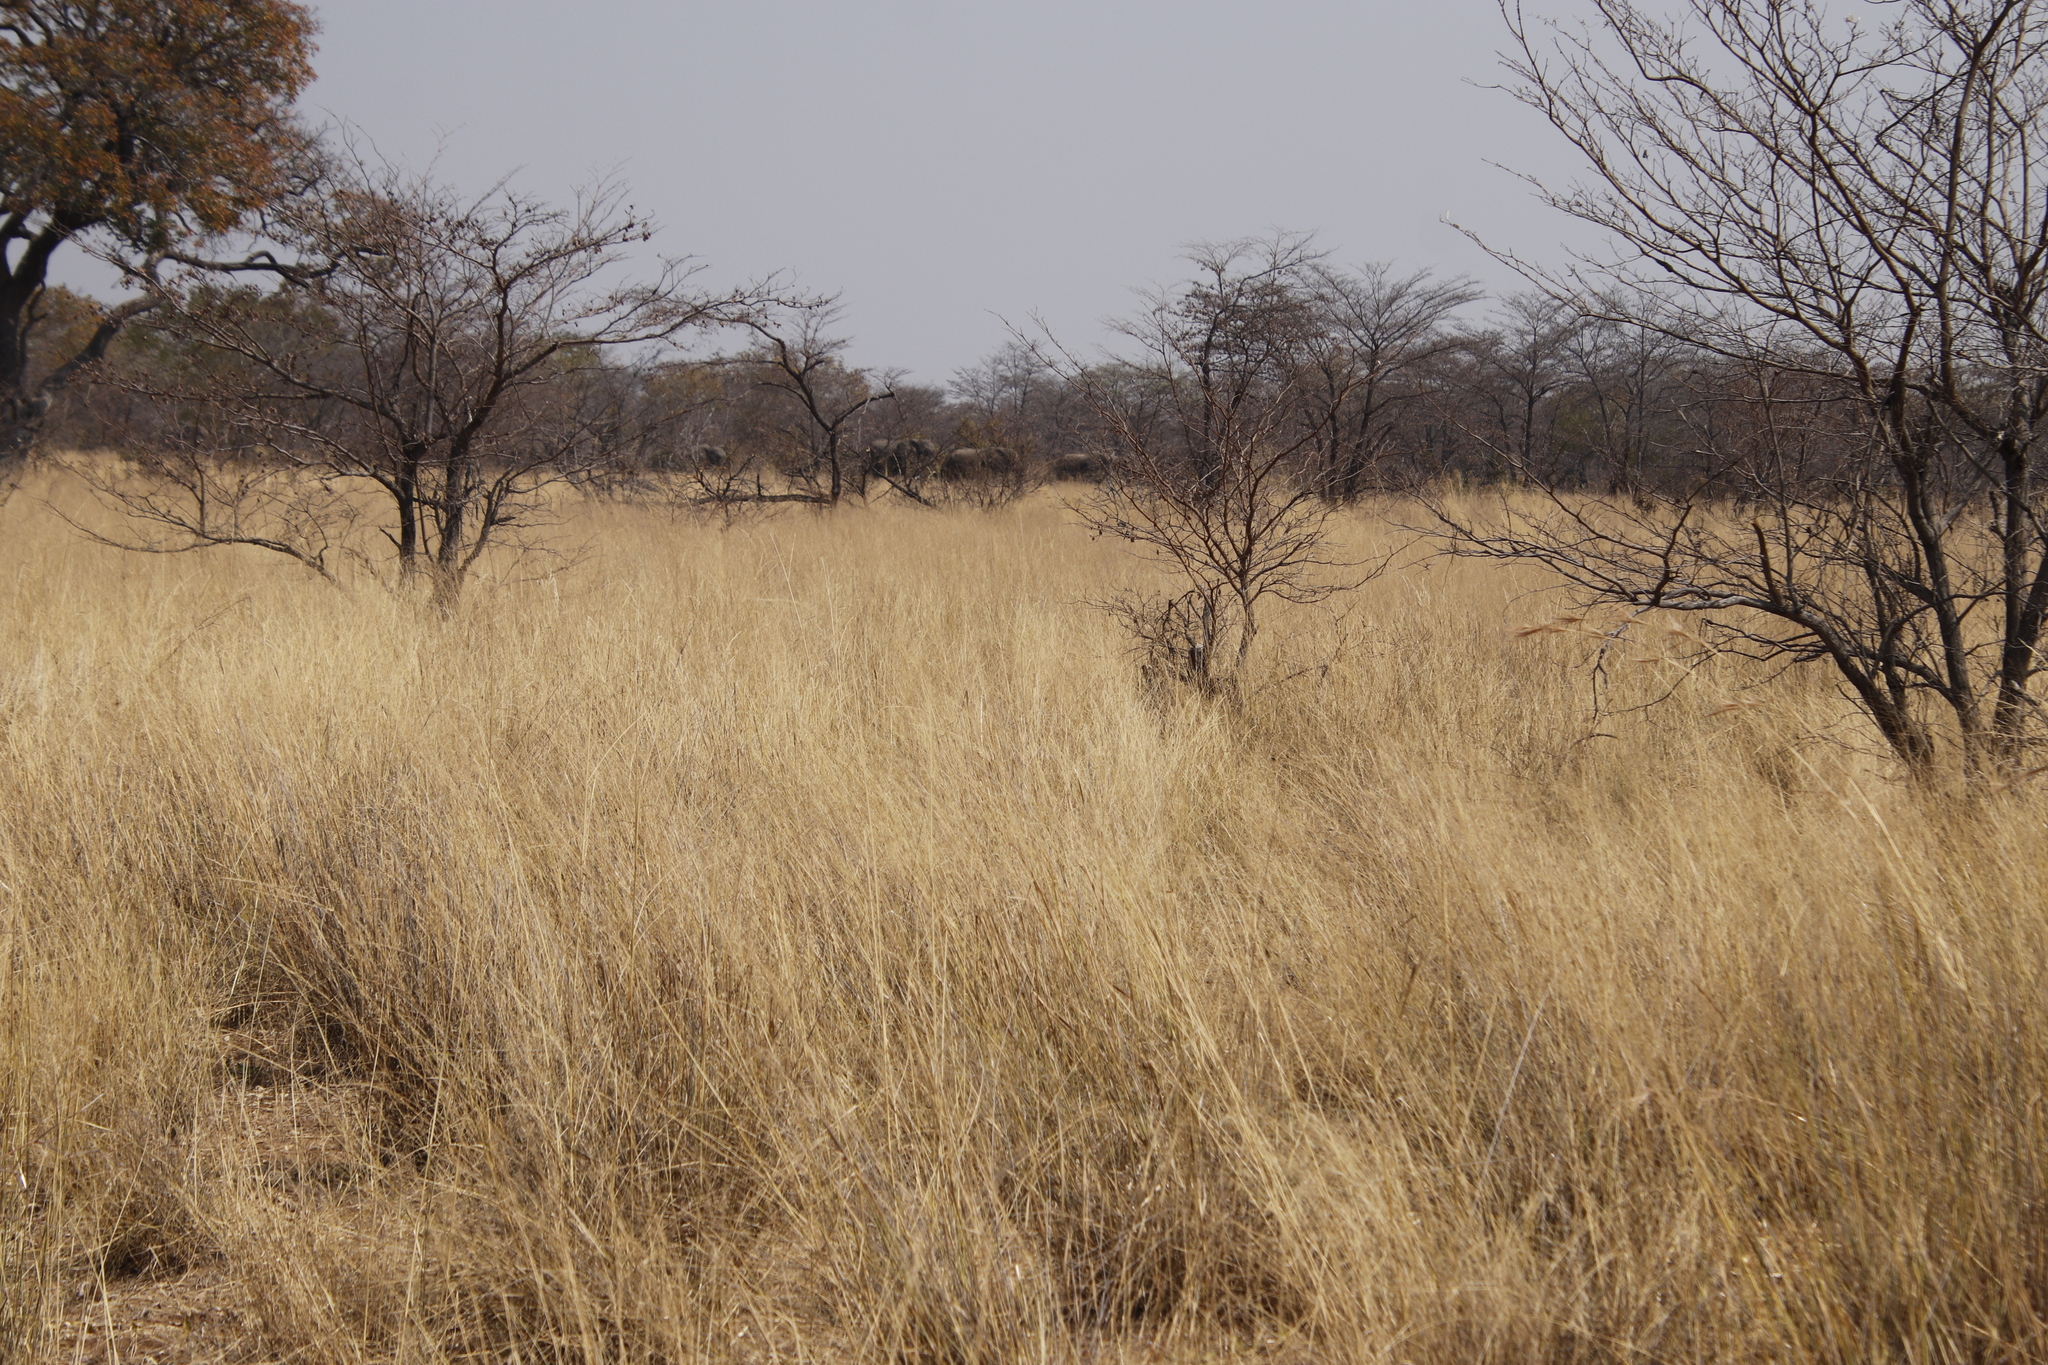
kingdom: Animalia
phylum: Chordata
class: Mammalia
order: Proboscidea
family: Elephantidae
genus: Loxodonta
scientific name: Loxodonta africana
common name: African elephant
